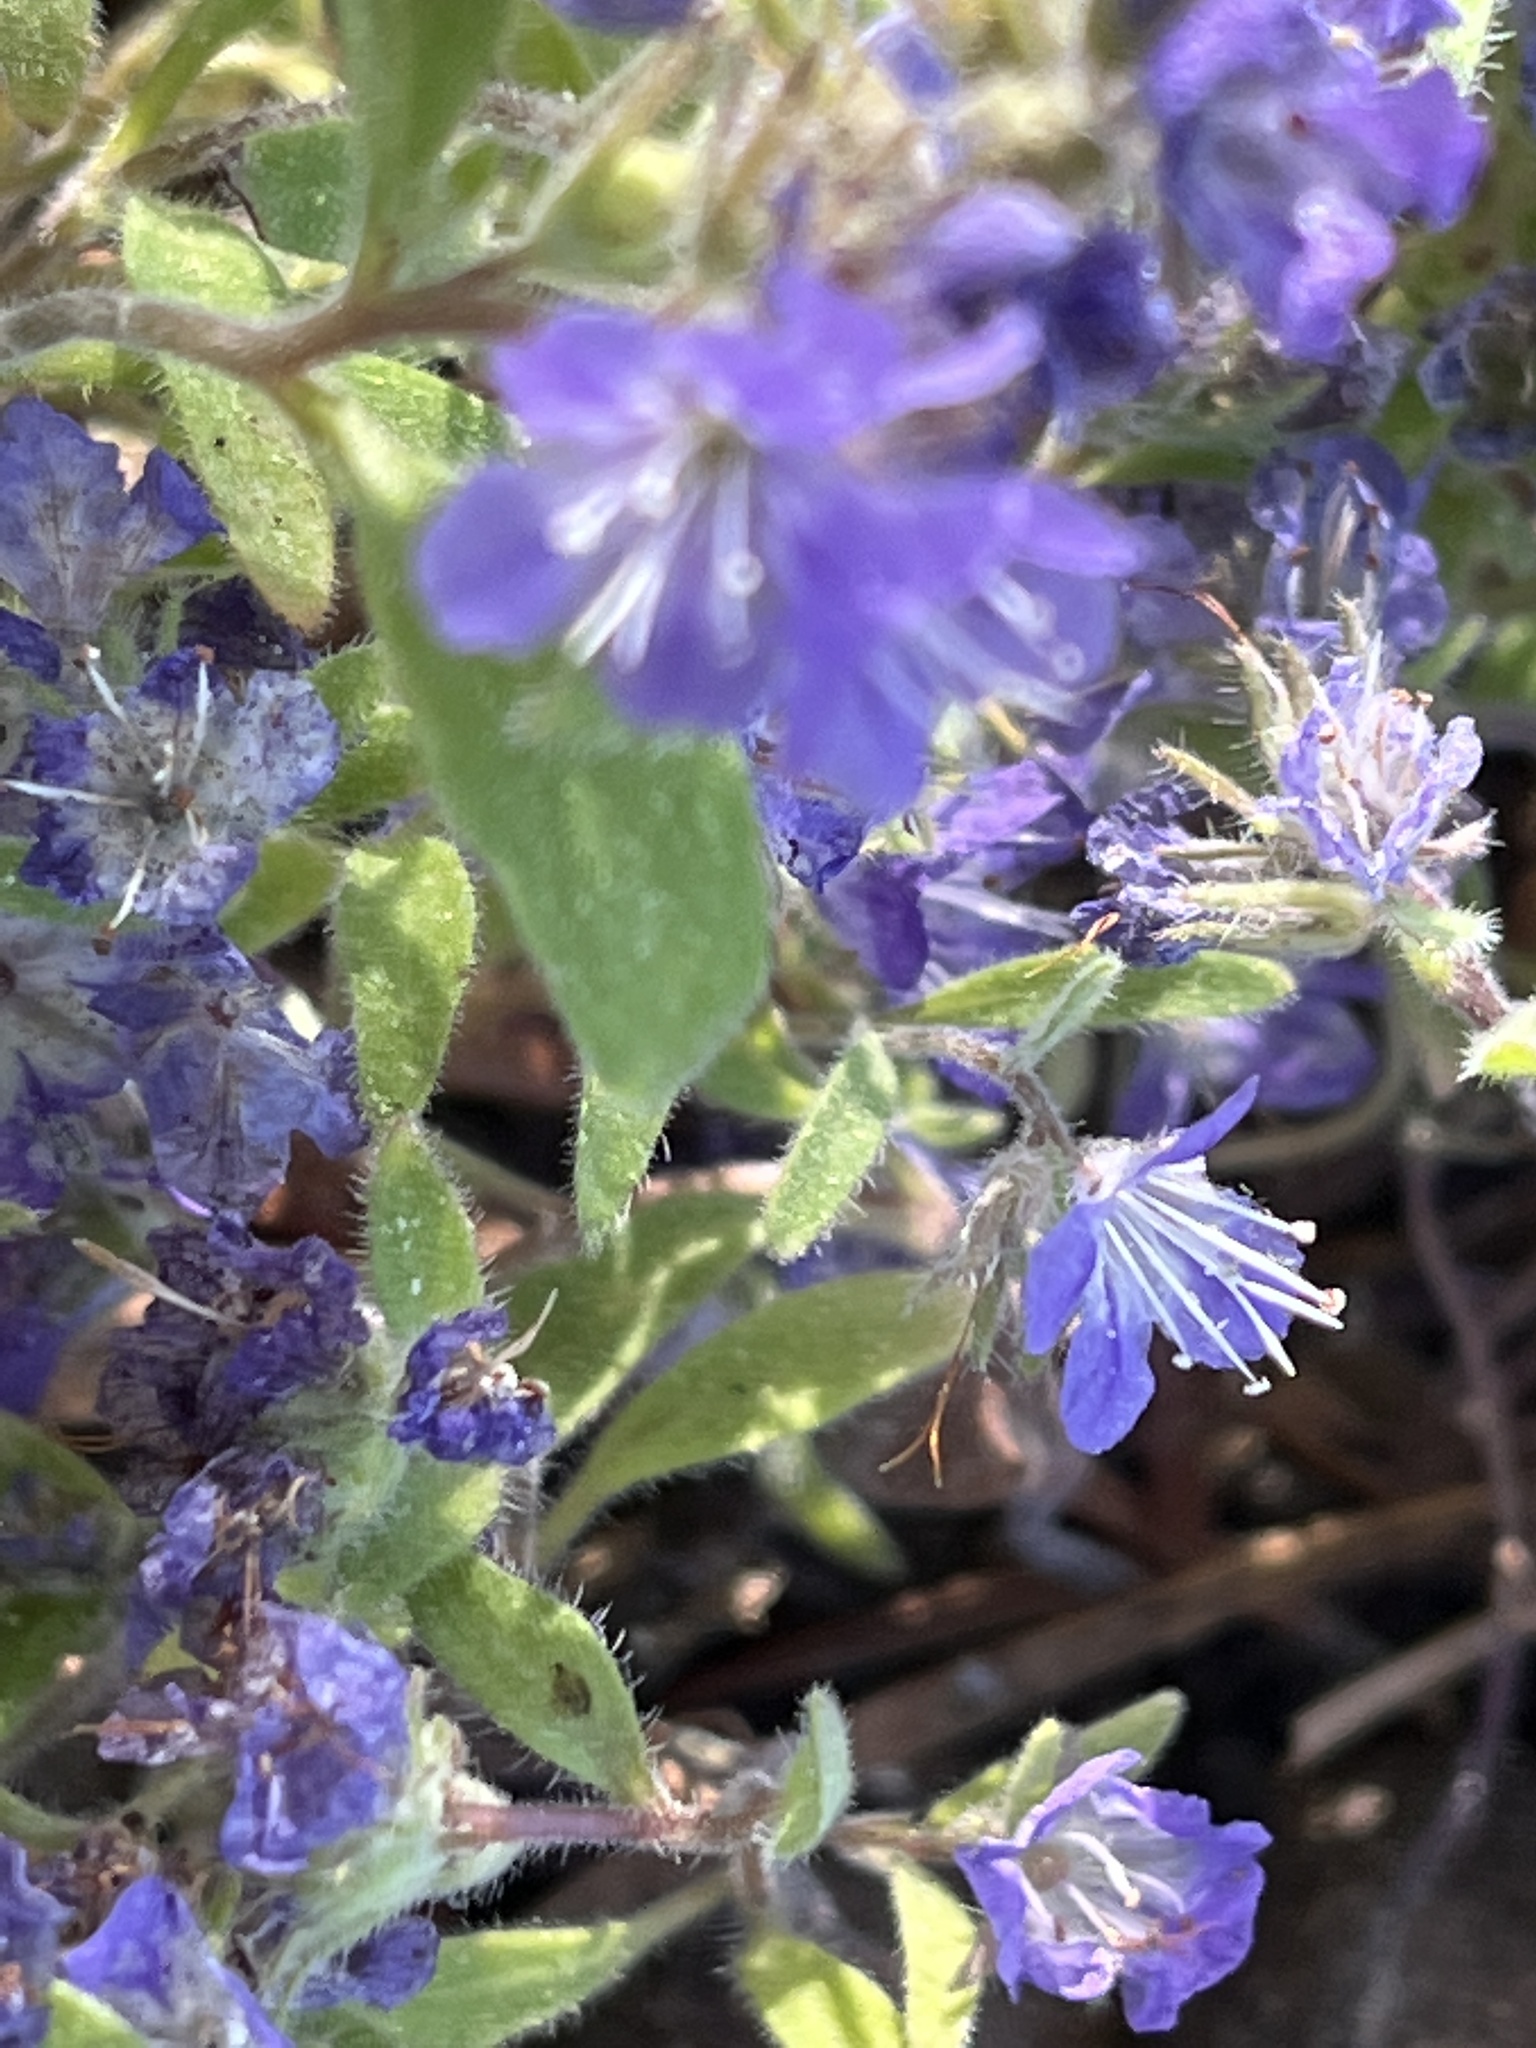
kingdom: Plantae
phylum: Tracheophyta
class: Magnoliopsida
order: Boraginales
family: Hydrophyllaceae
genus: Phacelia
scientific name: Phacelia humilis
